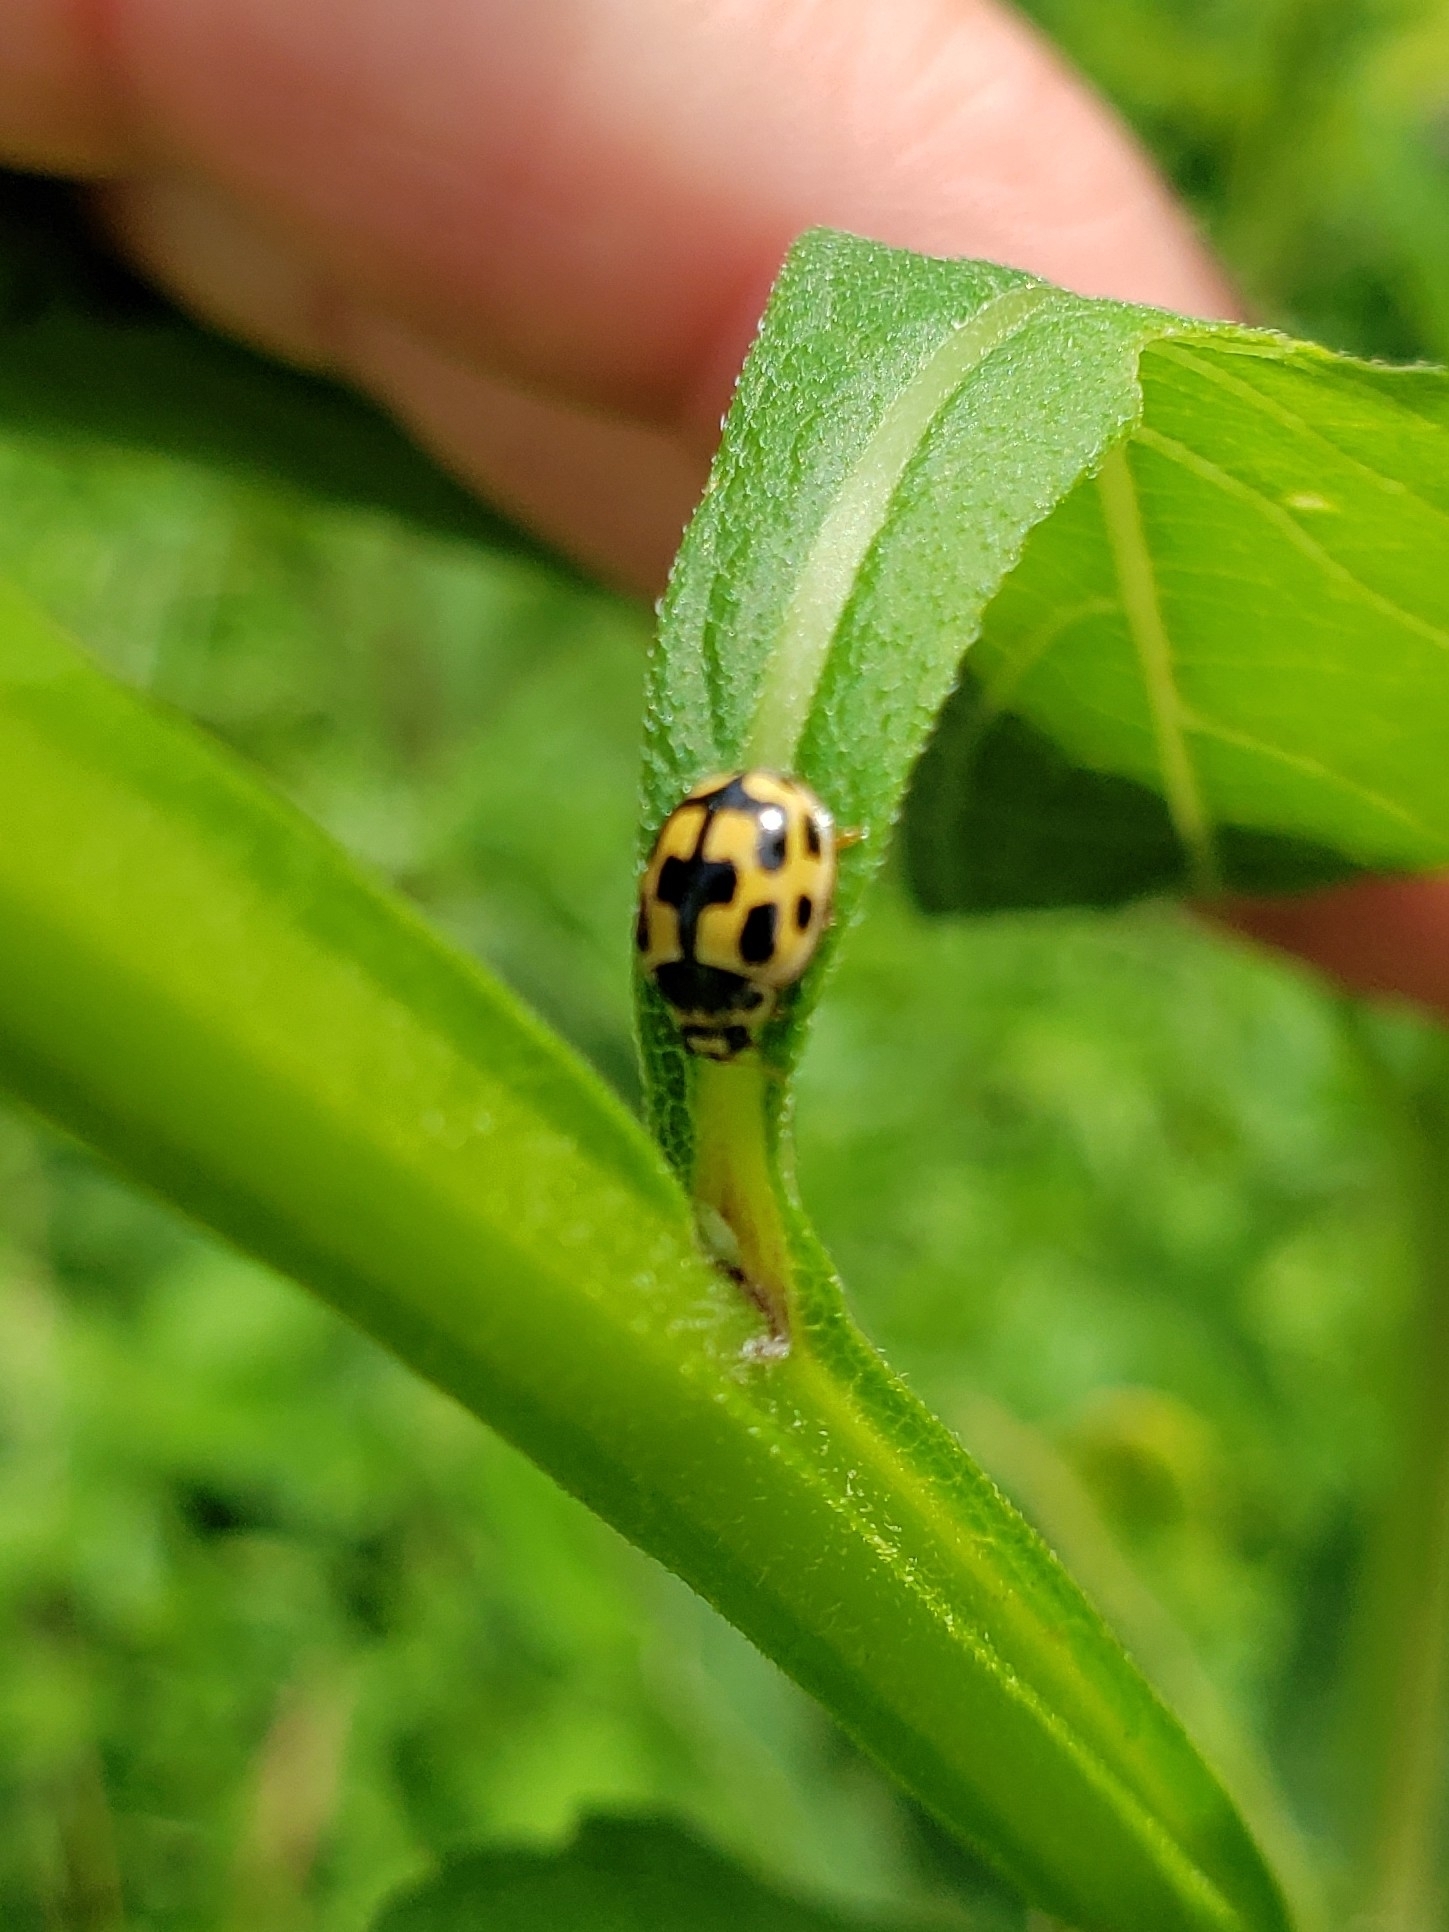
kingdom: Animalia
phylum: Arthropoda
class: Insecta
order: Coleoptera
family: Coccinellidae
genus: Propylaea
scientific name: Propylaea quatuordecimpunctata
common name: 14-spotted ladybird beetle
